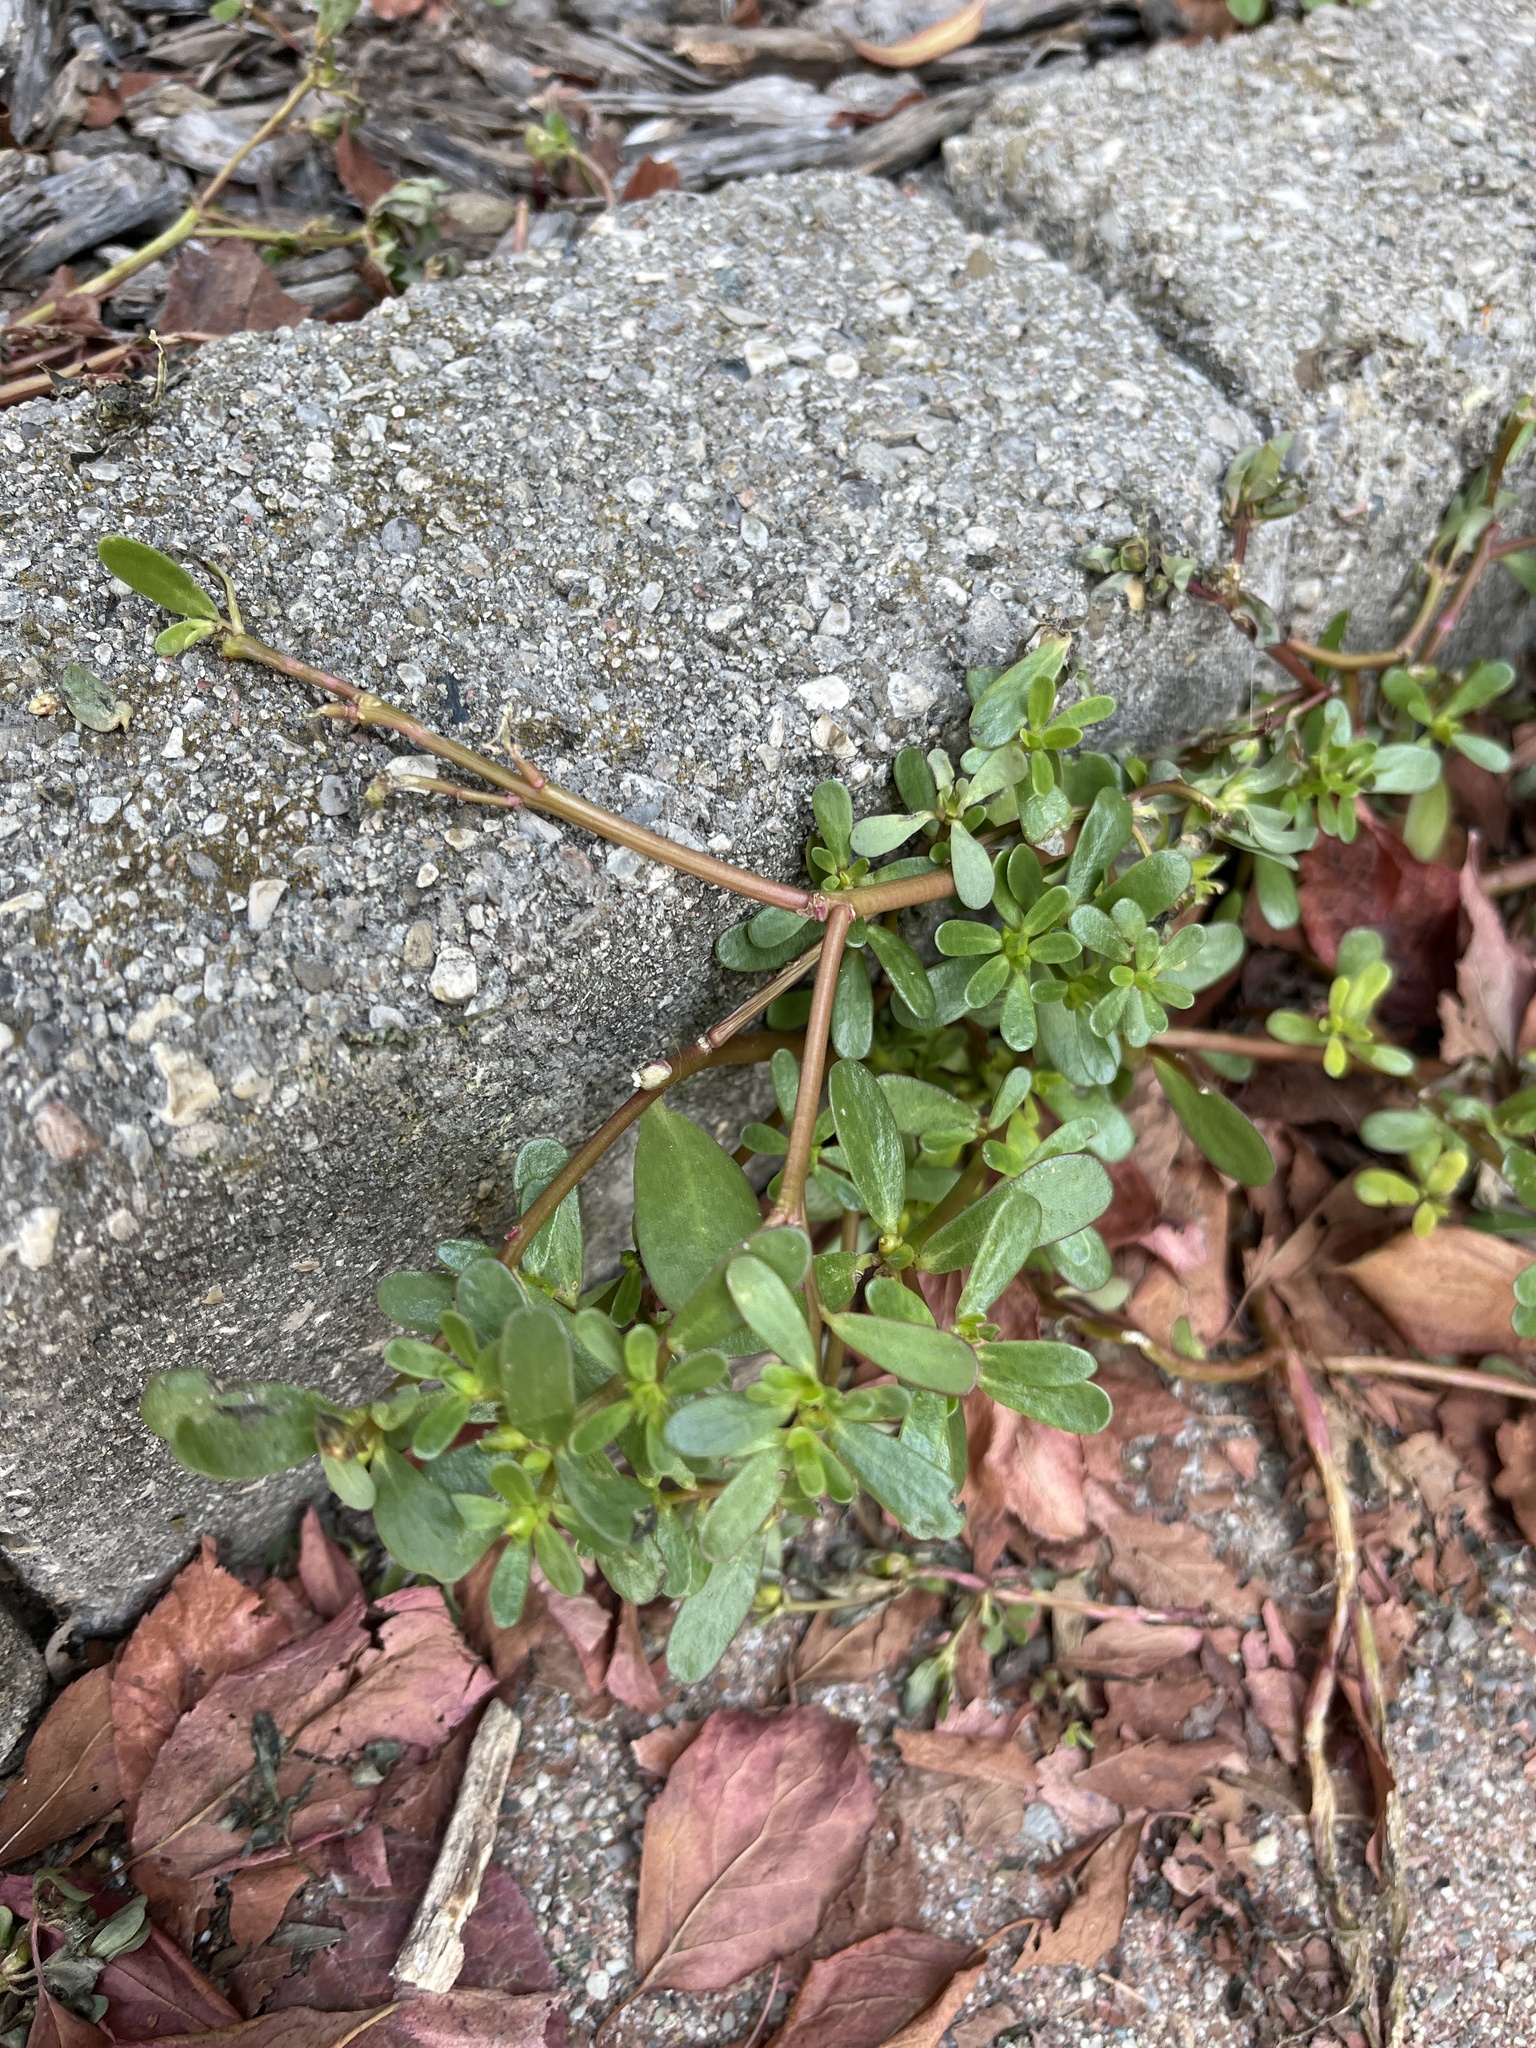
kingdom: Plantae
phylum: Tracheophyta
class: Magnoliopsida
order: Caryophyllales
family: Portulacaceae
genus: Portulaca
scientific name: Portulaca oleracea
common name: Common purslane
